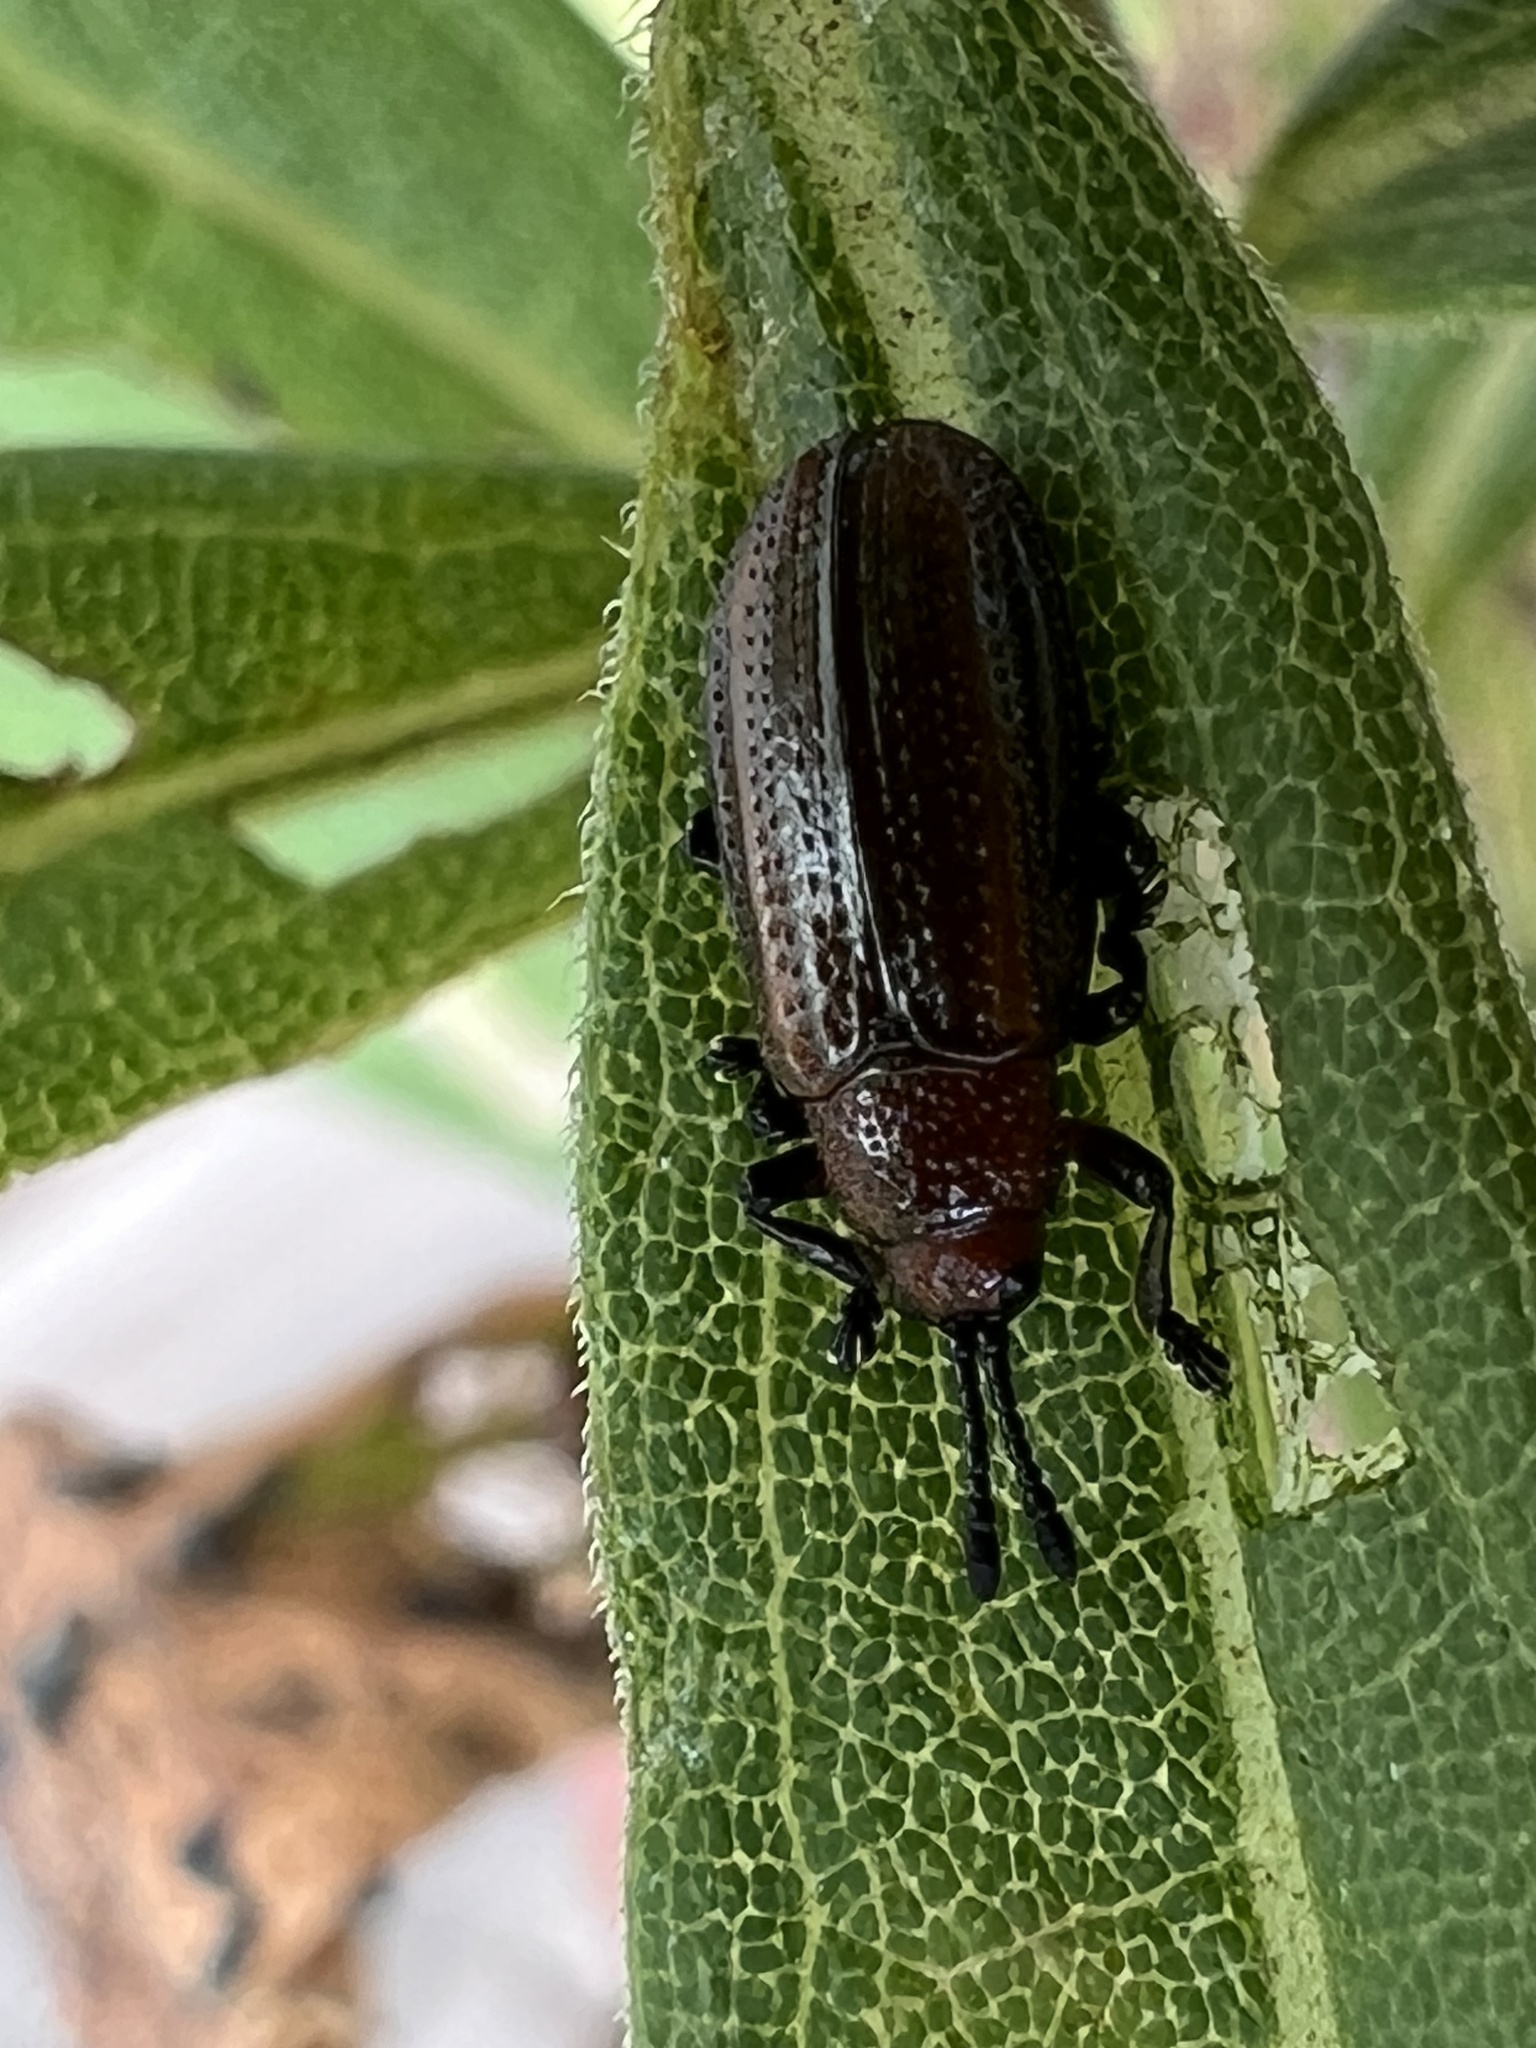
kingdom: Animalia
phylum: Arthropoda
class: Insecta
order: Coleoptera
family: Chrysomelidae
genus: Microrhopala
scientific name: Microrhopala vittata
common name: Goldenrod leaf miner beetle
